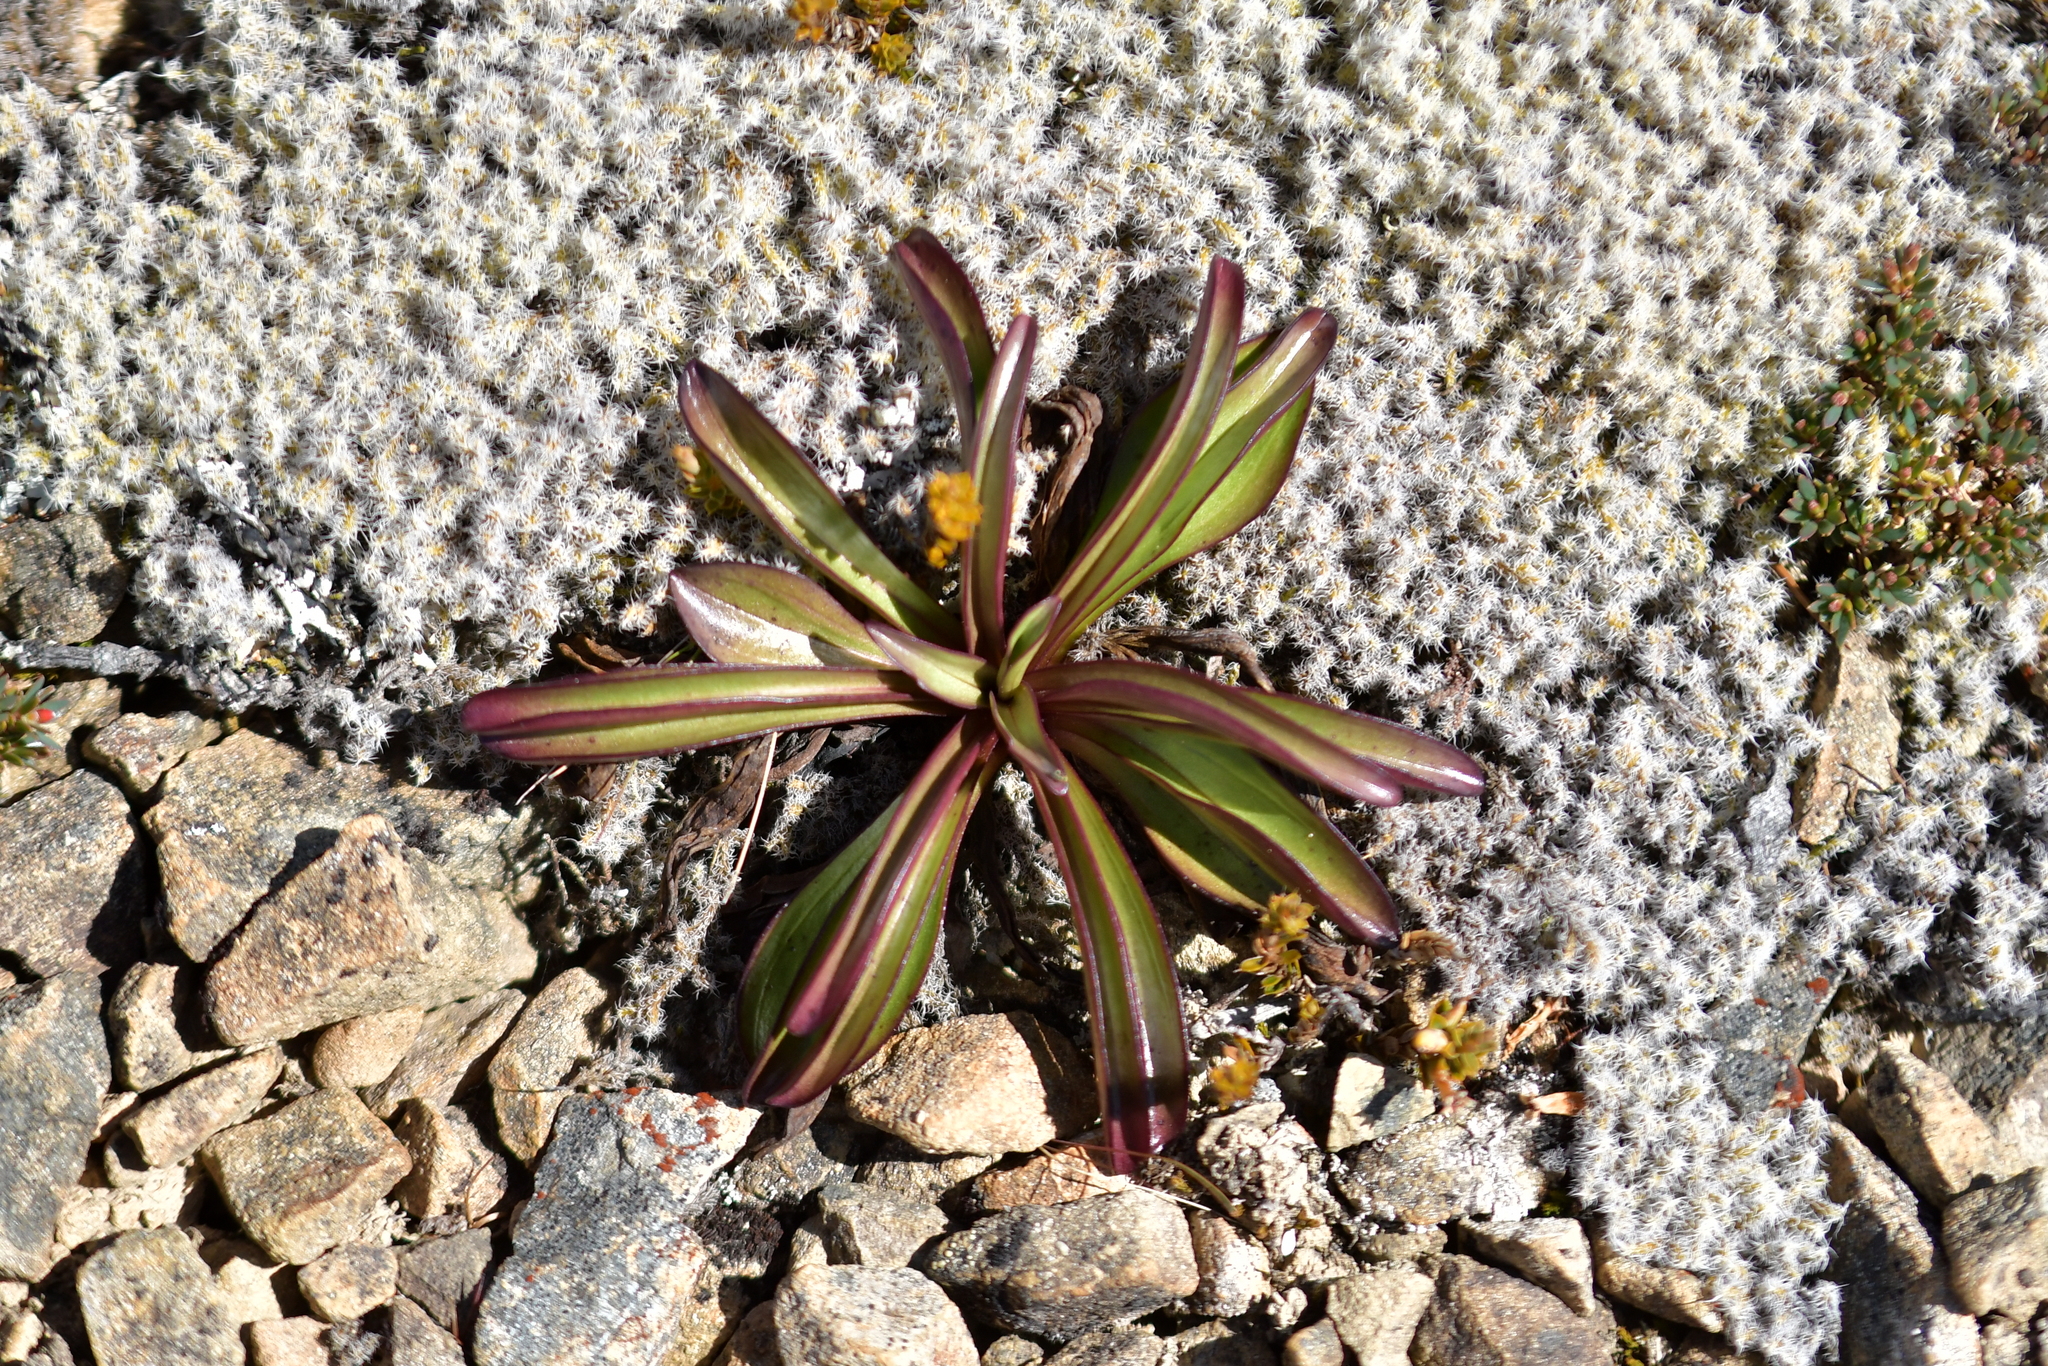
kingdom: Plantae
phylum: Tracheophyta
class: Magnoliopsida
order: Gentianales
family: Gentianaceae
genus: Gentianella
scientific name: Gentianella corymbifera
